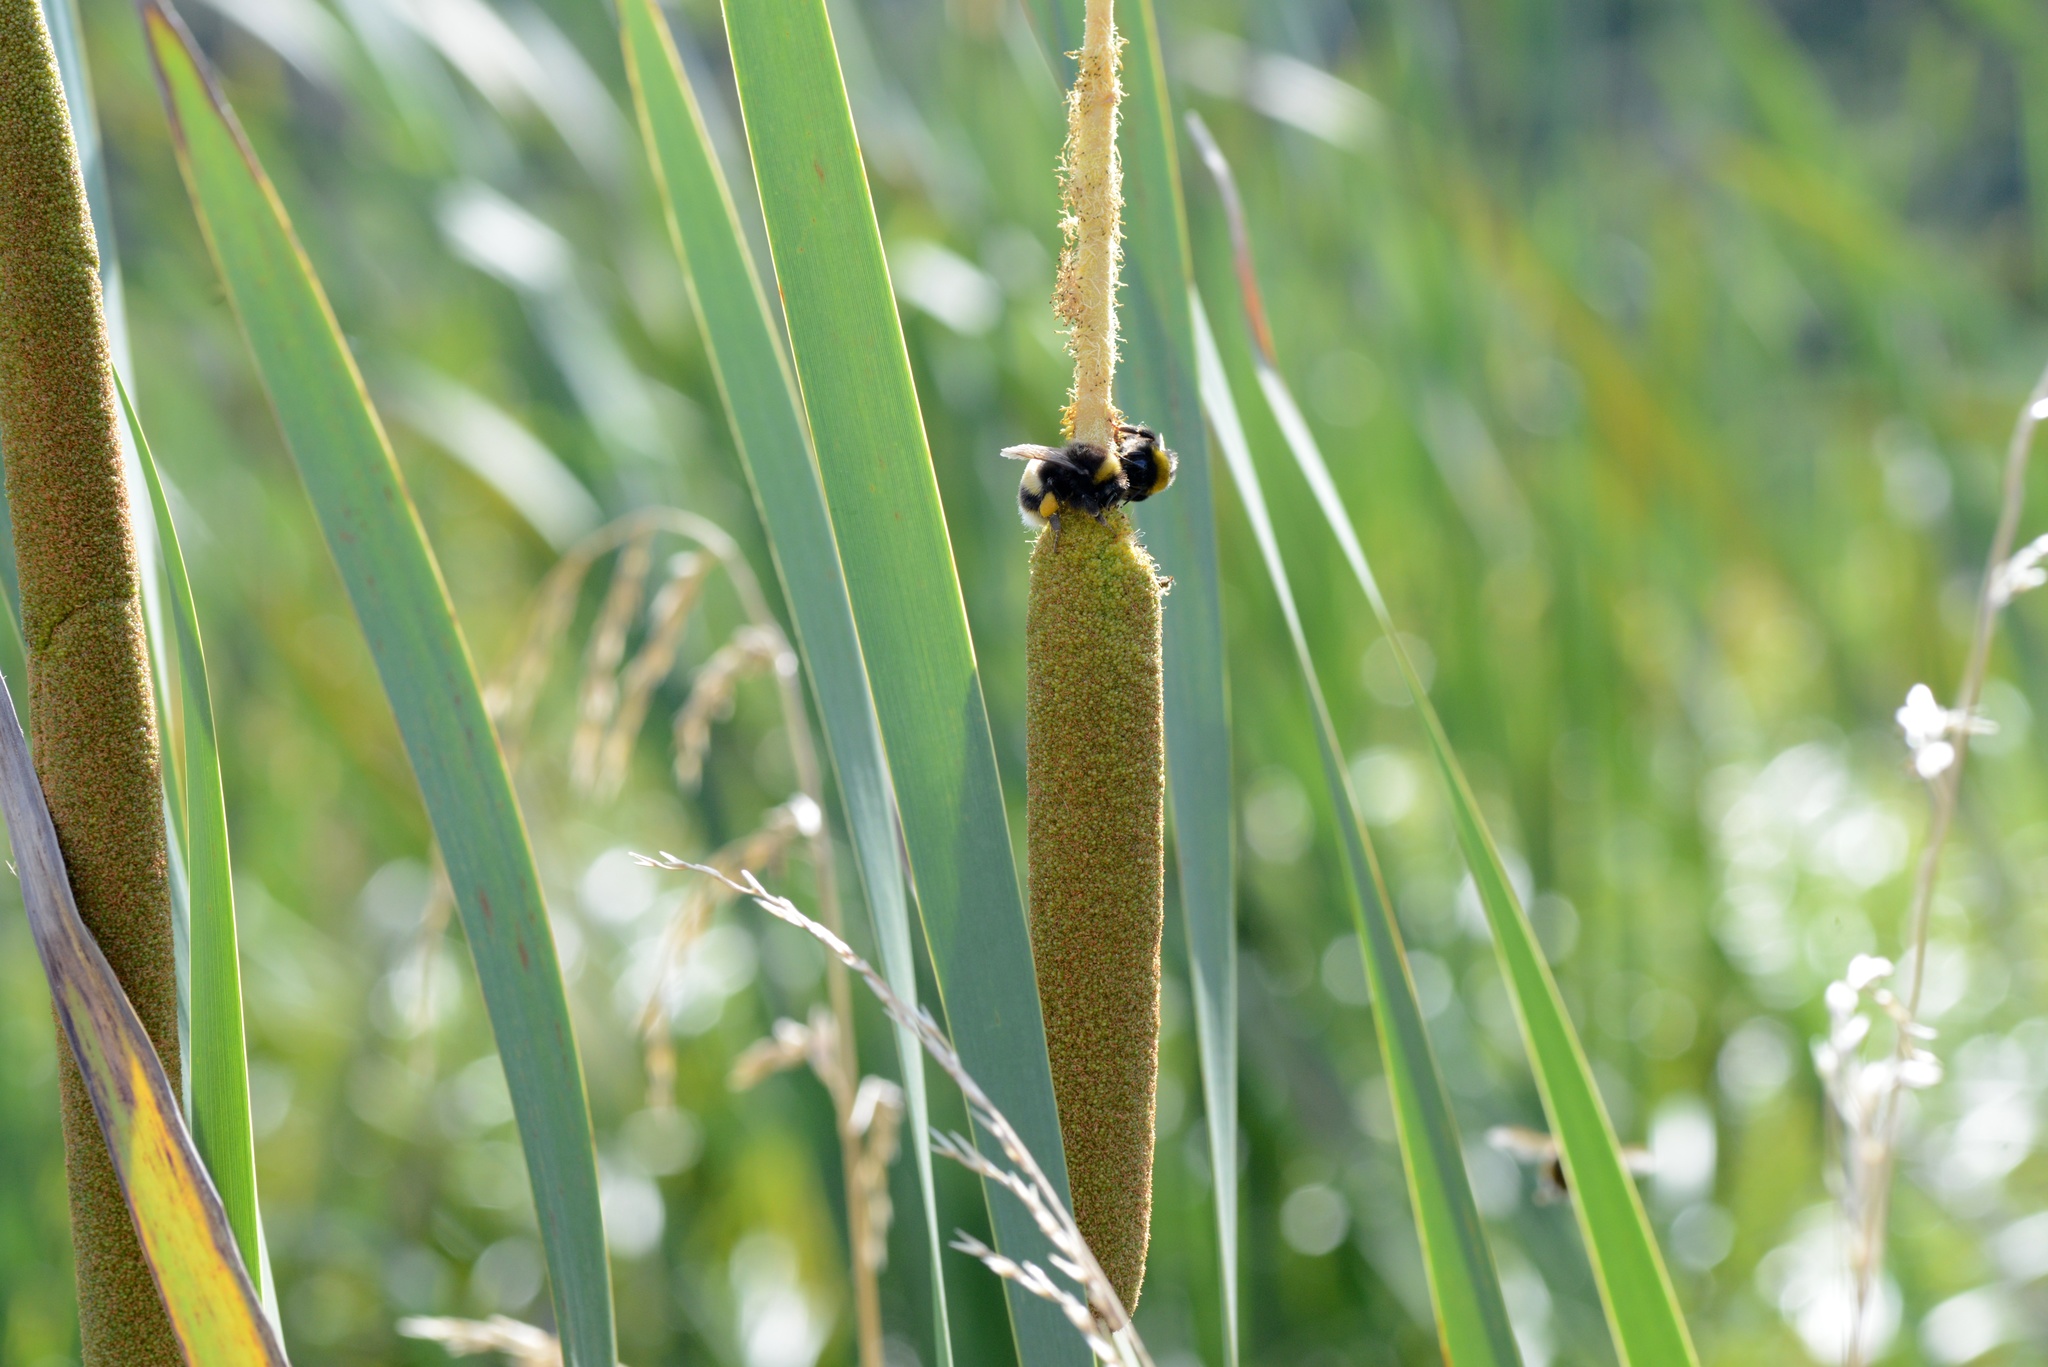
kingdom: Animalia
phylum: Arthropoda
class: Insecta
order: Hymenoptera
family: Apidae
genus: Bombus
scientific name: Bombus terrestris
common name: Buff-tailed bumblebee
